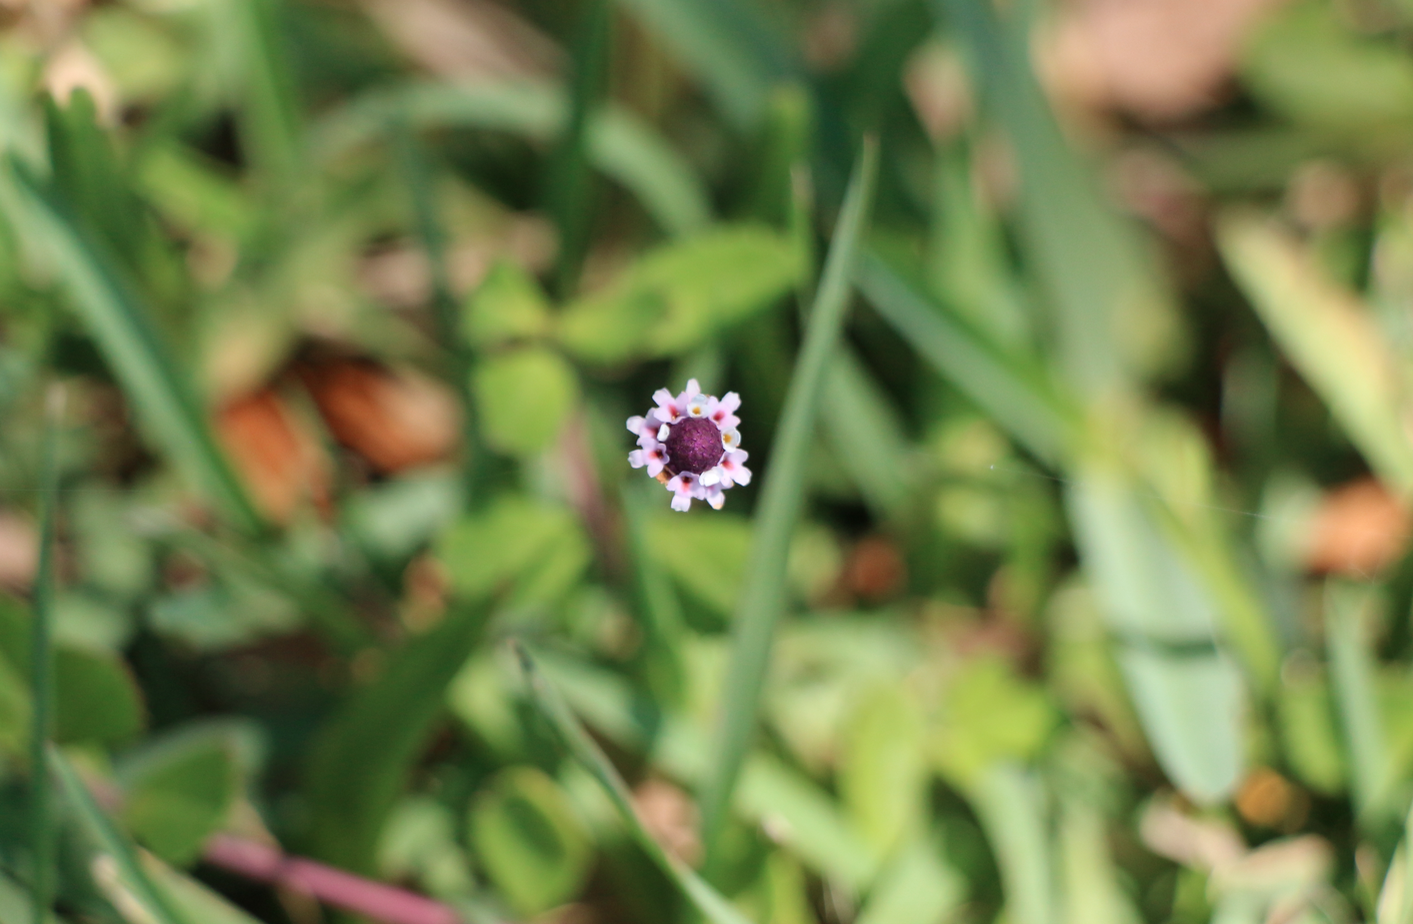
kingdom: Plantae
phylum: Tracheophyta
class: Magnoliopsida
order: Lamiales
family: Verbenaceae
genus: Phyla
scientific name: Phyla nodiflora
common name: Frogfruit
